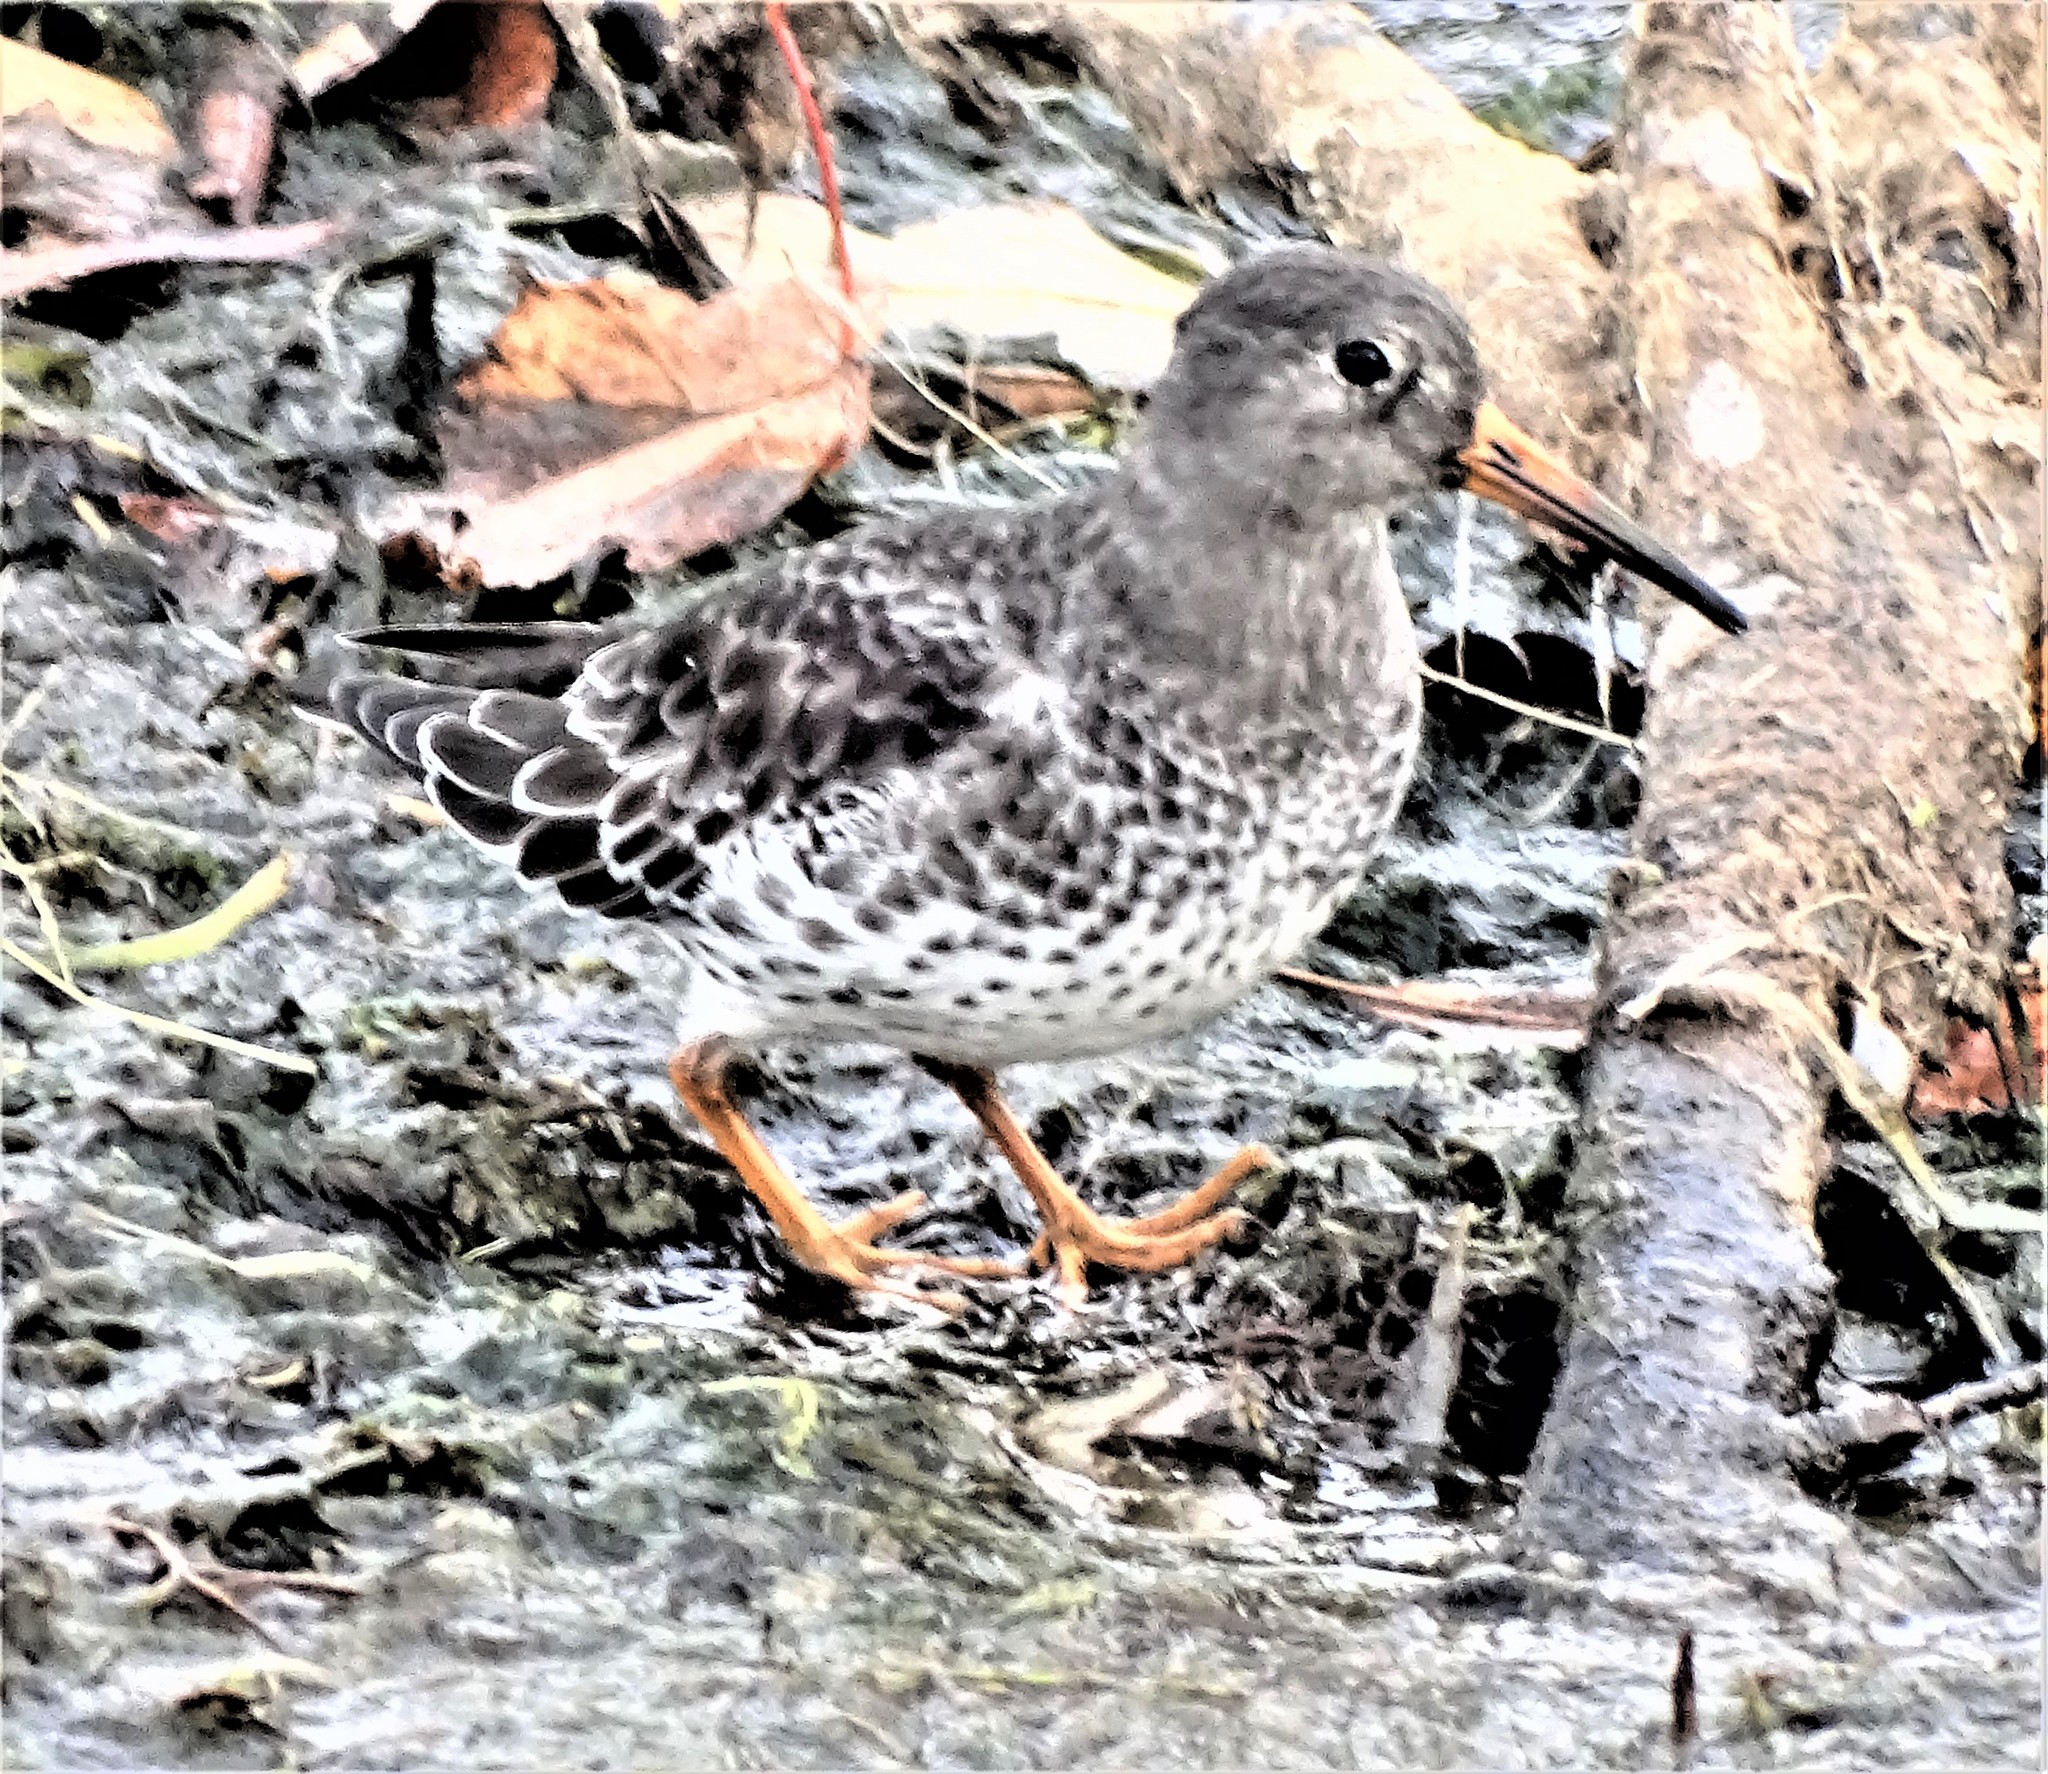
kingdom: Animalia
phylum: Chordata
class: Aves
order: Charadriiformes
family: Scolopacidae
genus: Calidris
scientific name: Calidris maritima
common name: Purple sandpiper
